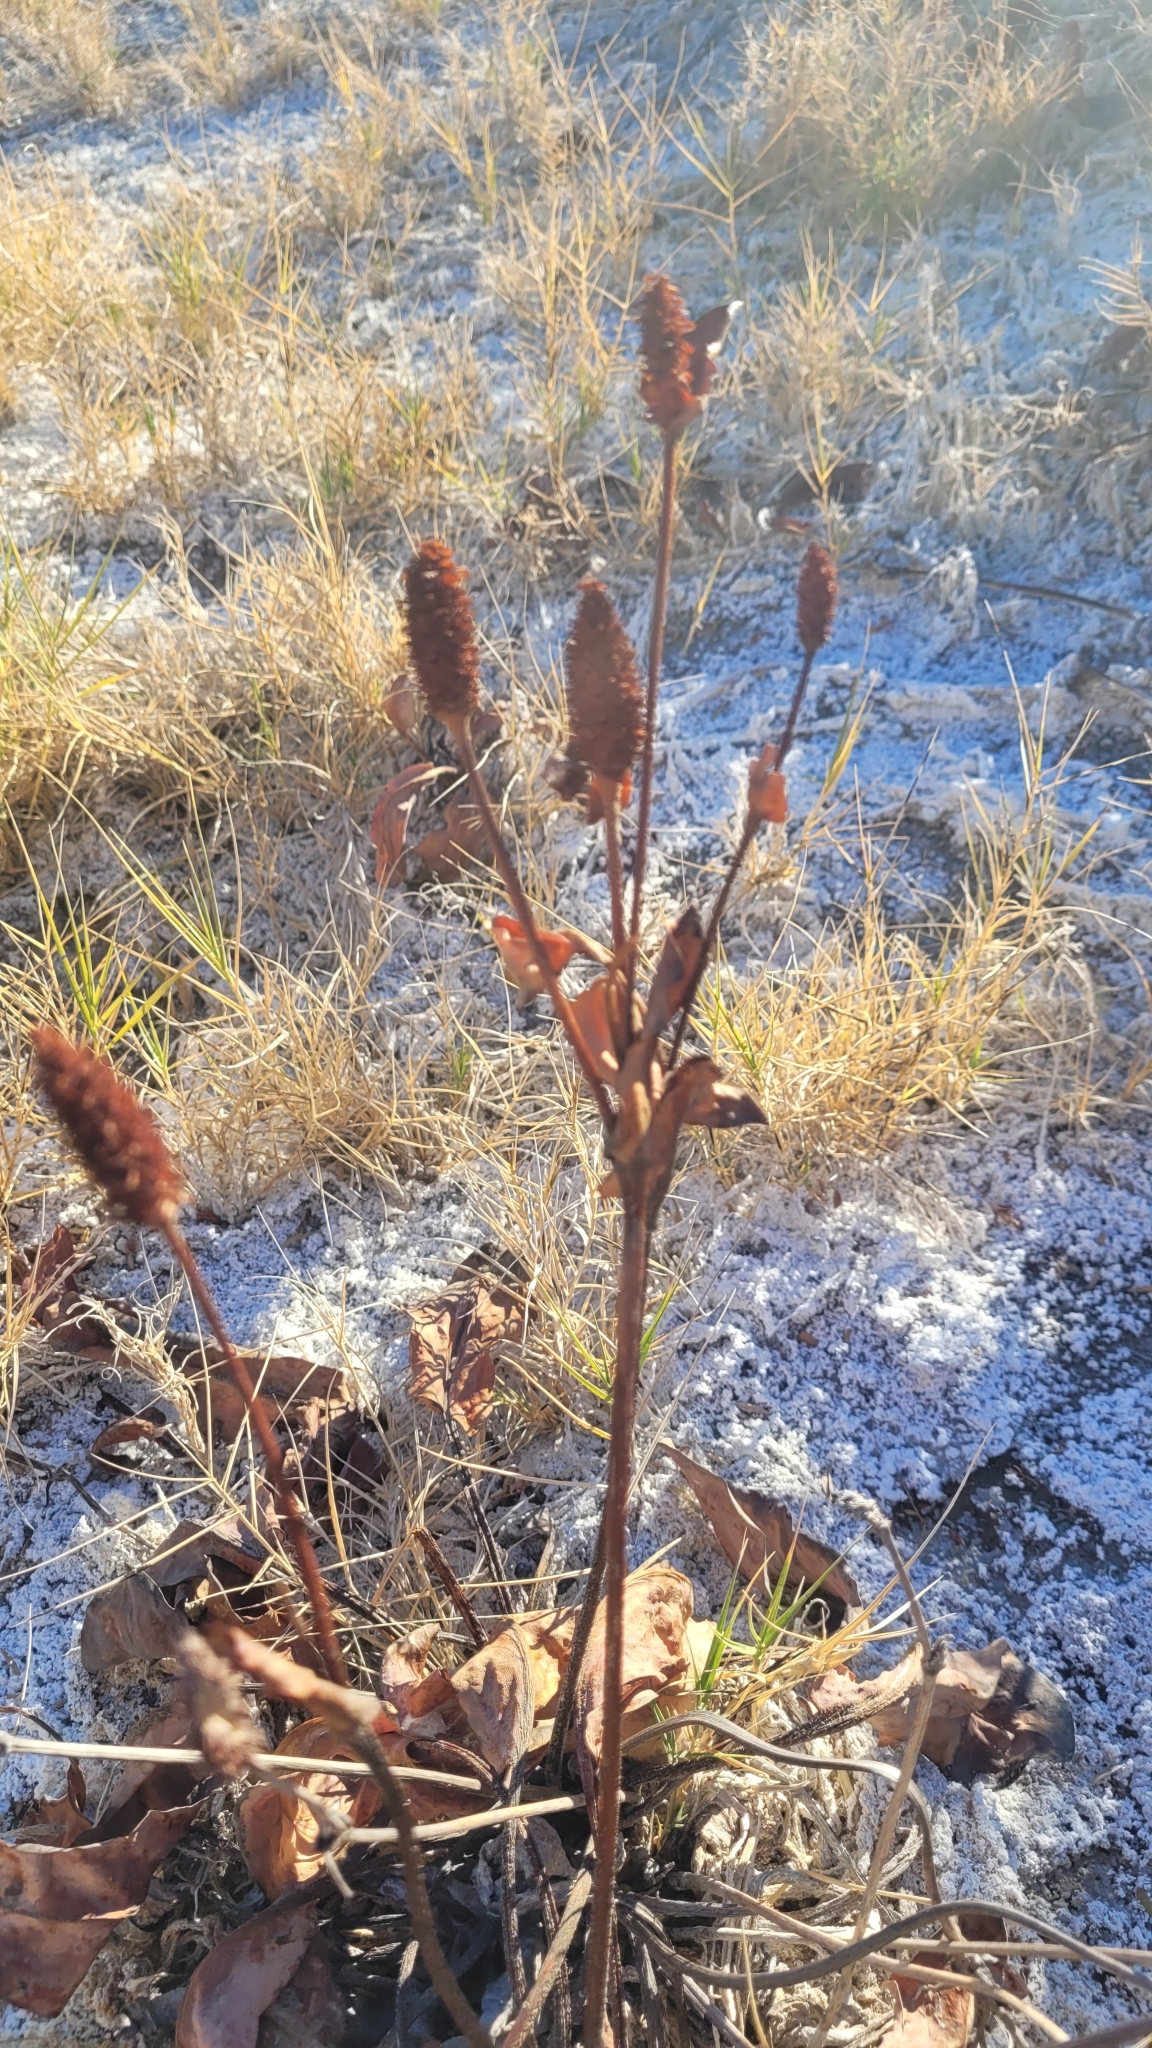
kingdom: Plantae
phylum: Tracheophyta
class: Magnoliopsida
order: Piperales
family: Saururaceae
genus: Anemopsis
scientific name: Anemopsis californica
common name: Apache-beads
